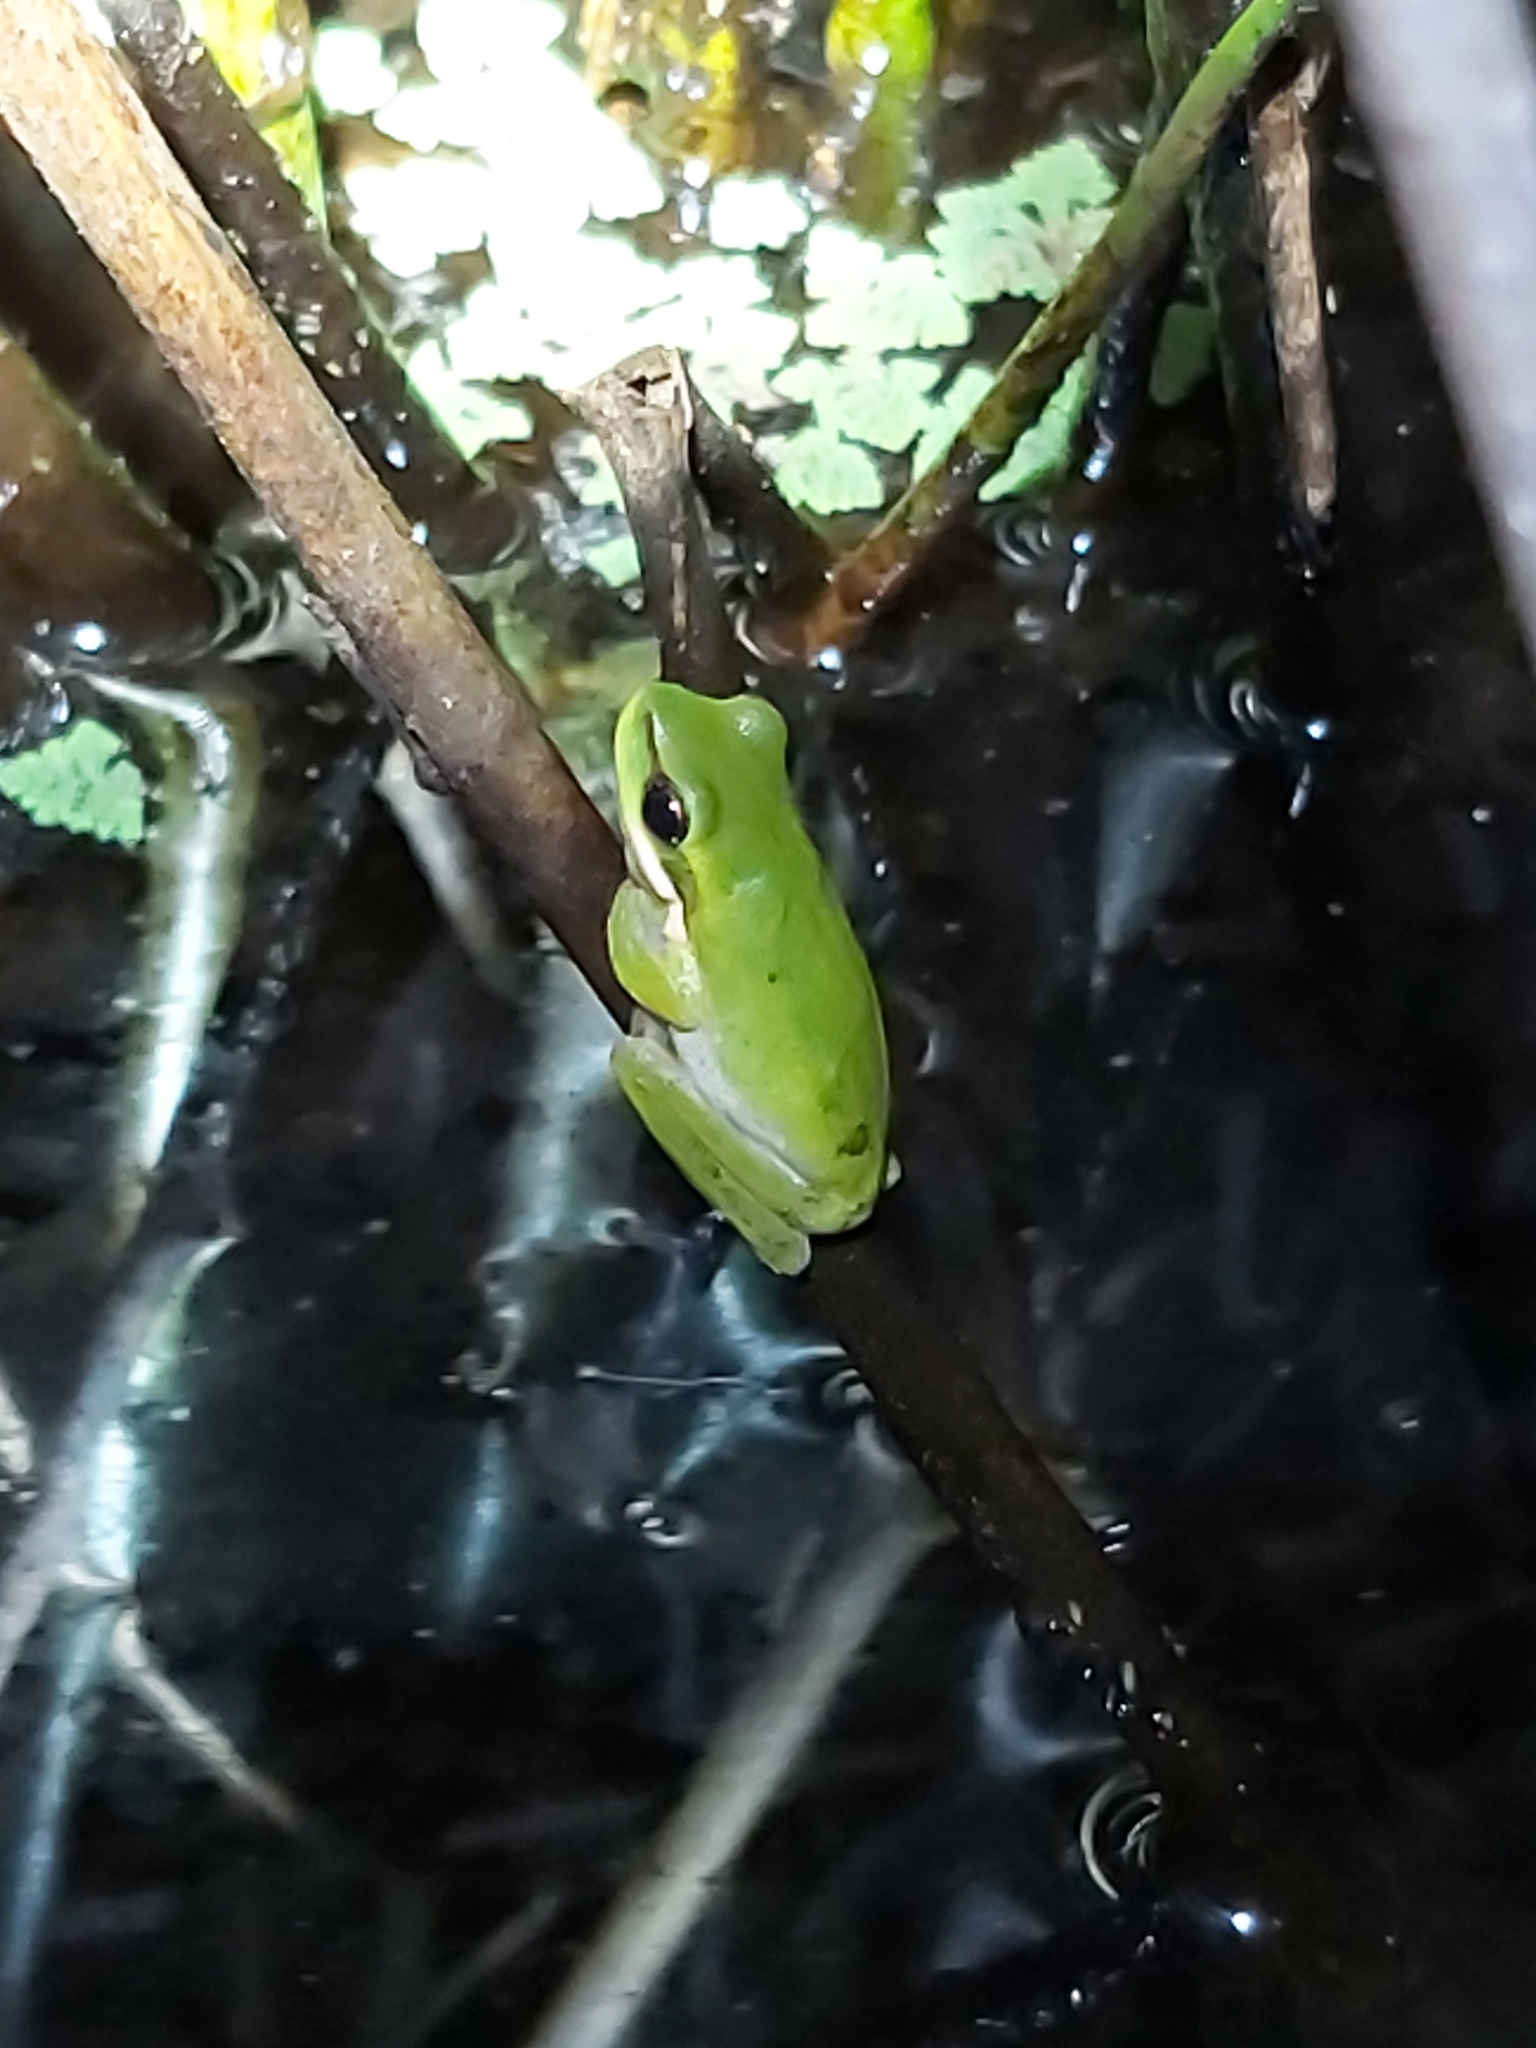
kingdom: Animalia
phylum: Chordata
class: Amphibia
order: Anura
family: Pelodryadidae
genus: Litoria
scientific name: Litoria fallax
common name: Eastern dwarf treefrog
